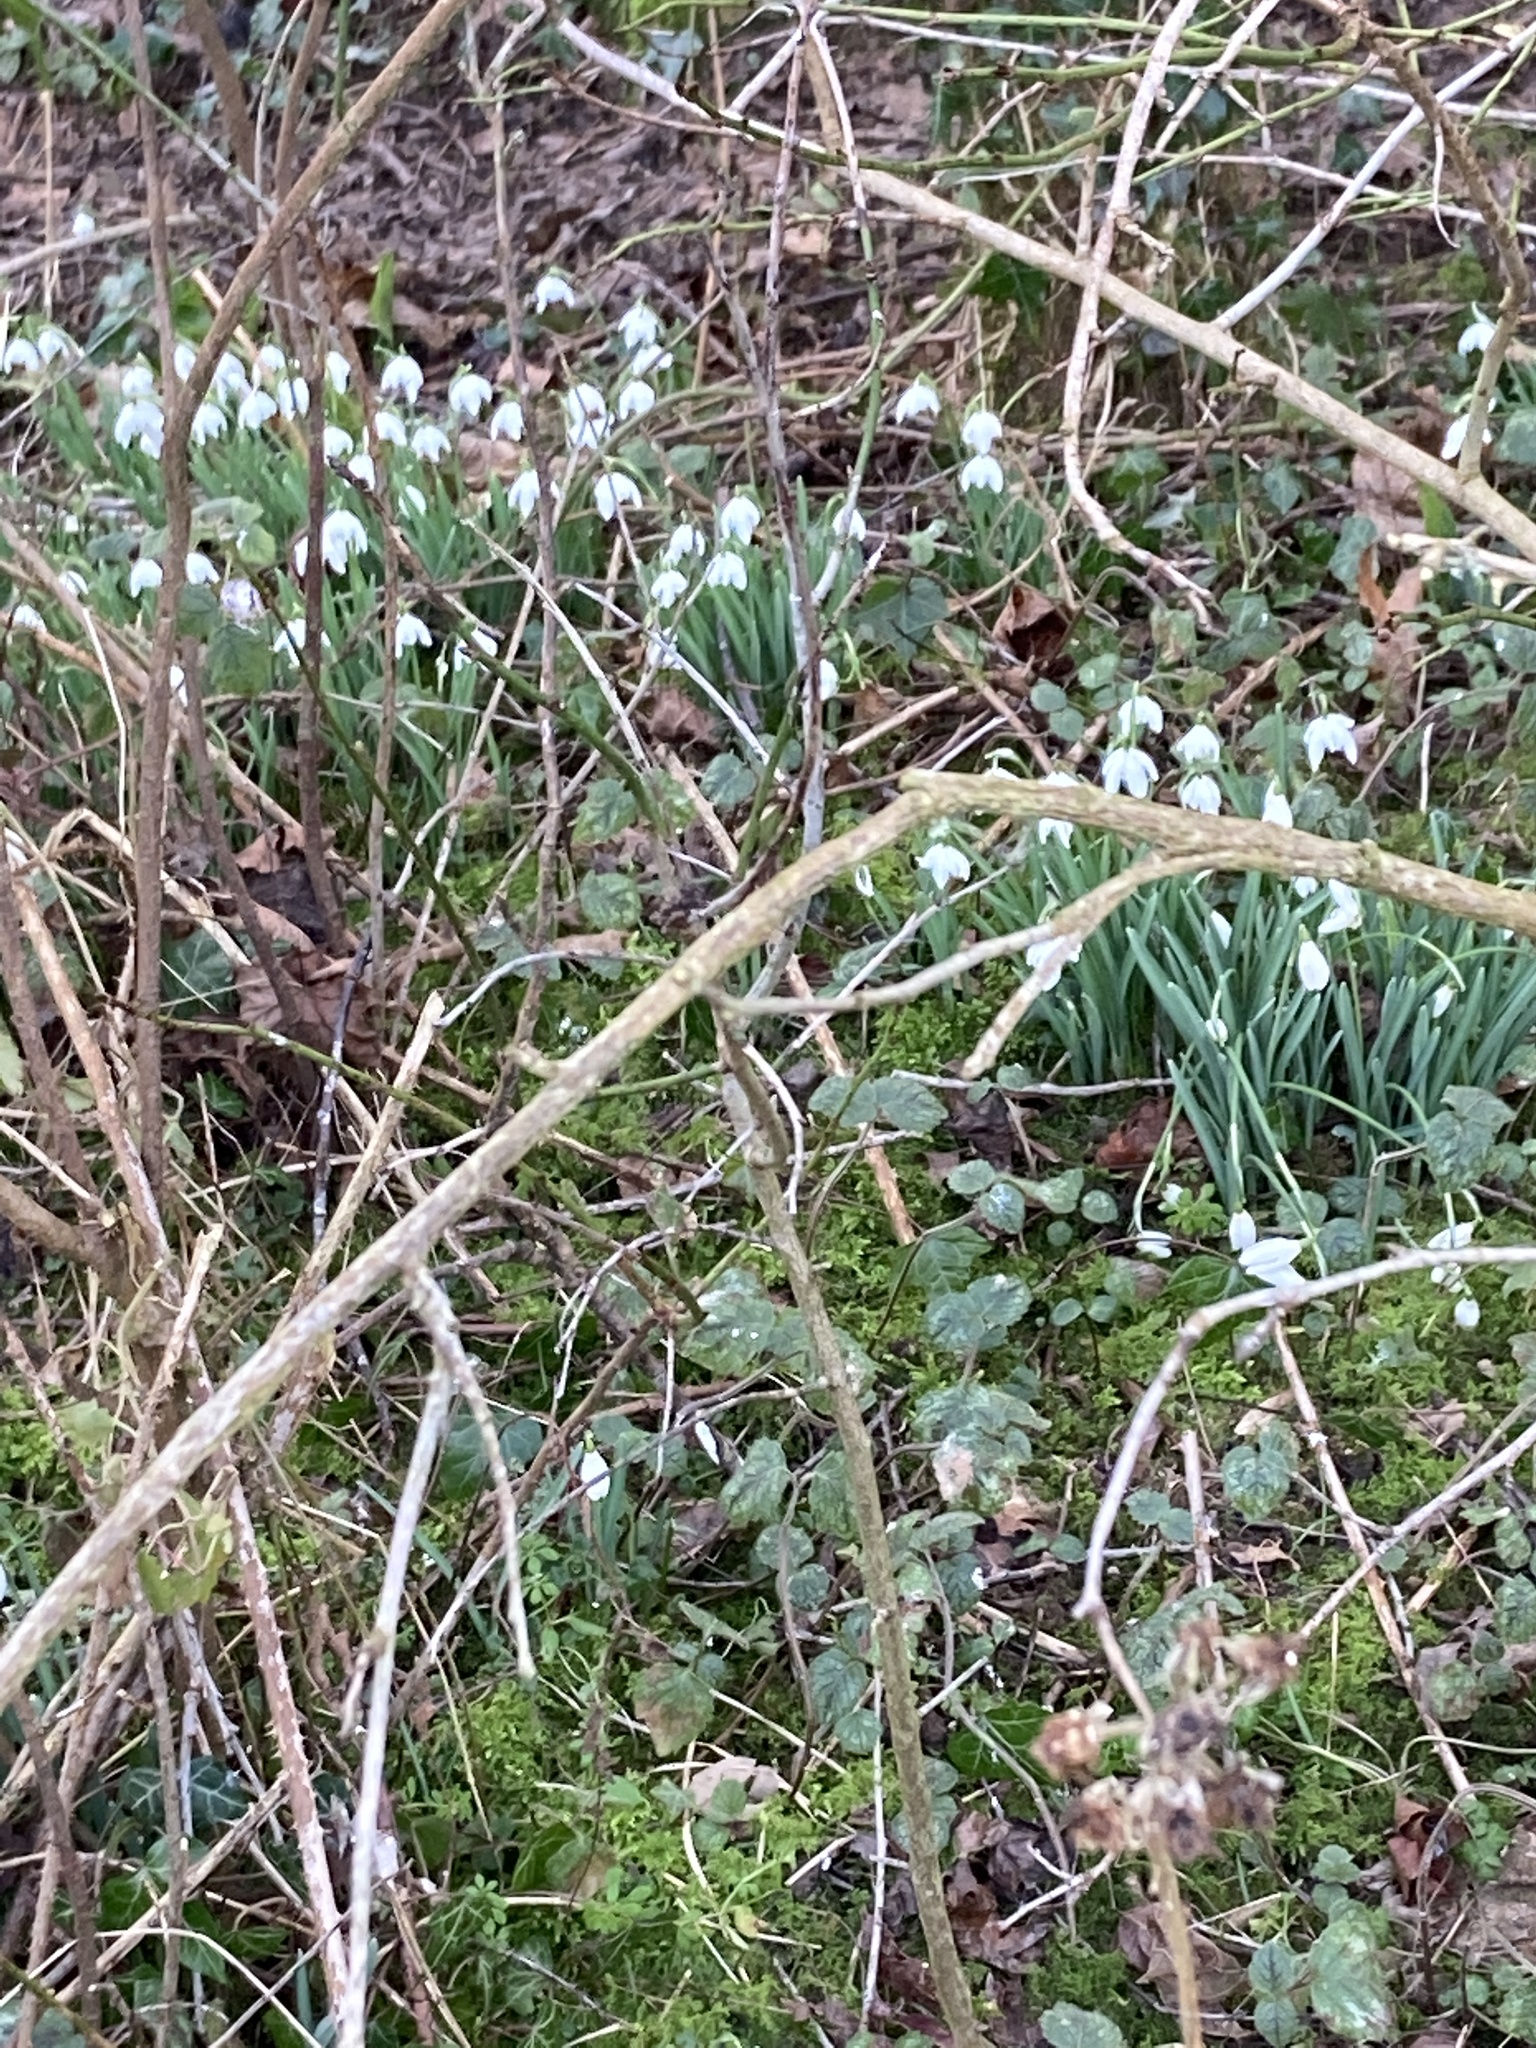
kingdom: Plantae
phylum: Tracheophyta
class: Liliopsida
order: Asparagales
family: Amaryllidaceae
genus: Galanthus
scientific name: Galanthus nivalis
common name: Snowdrop
